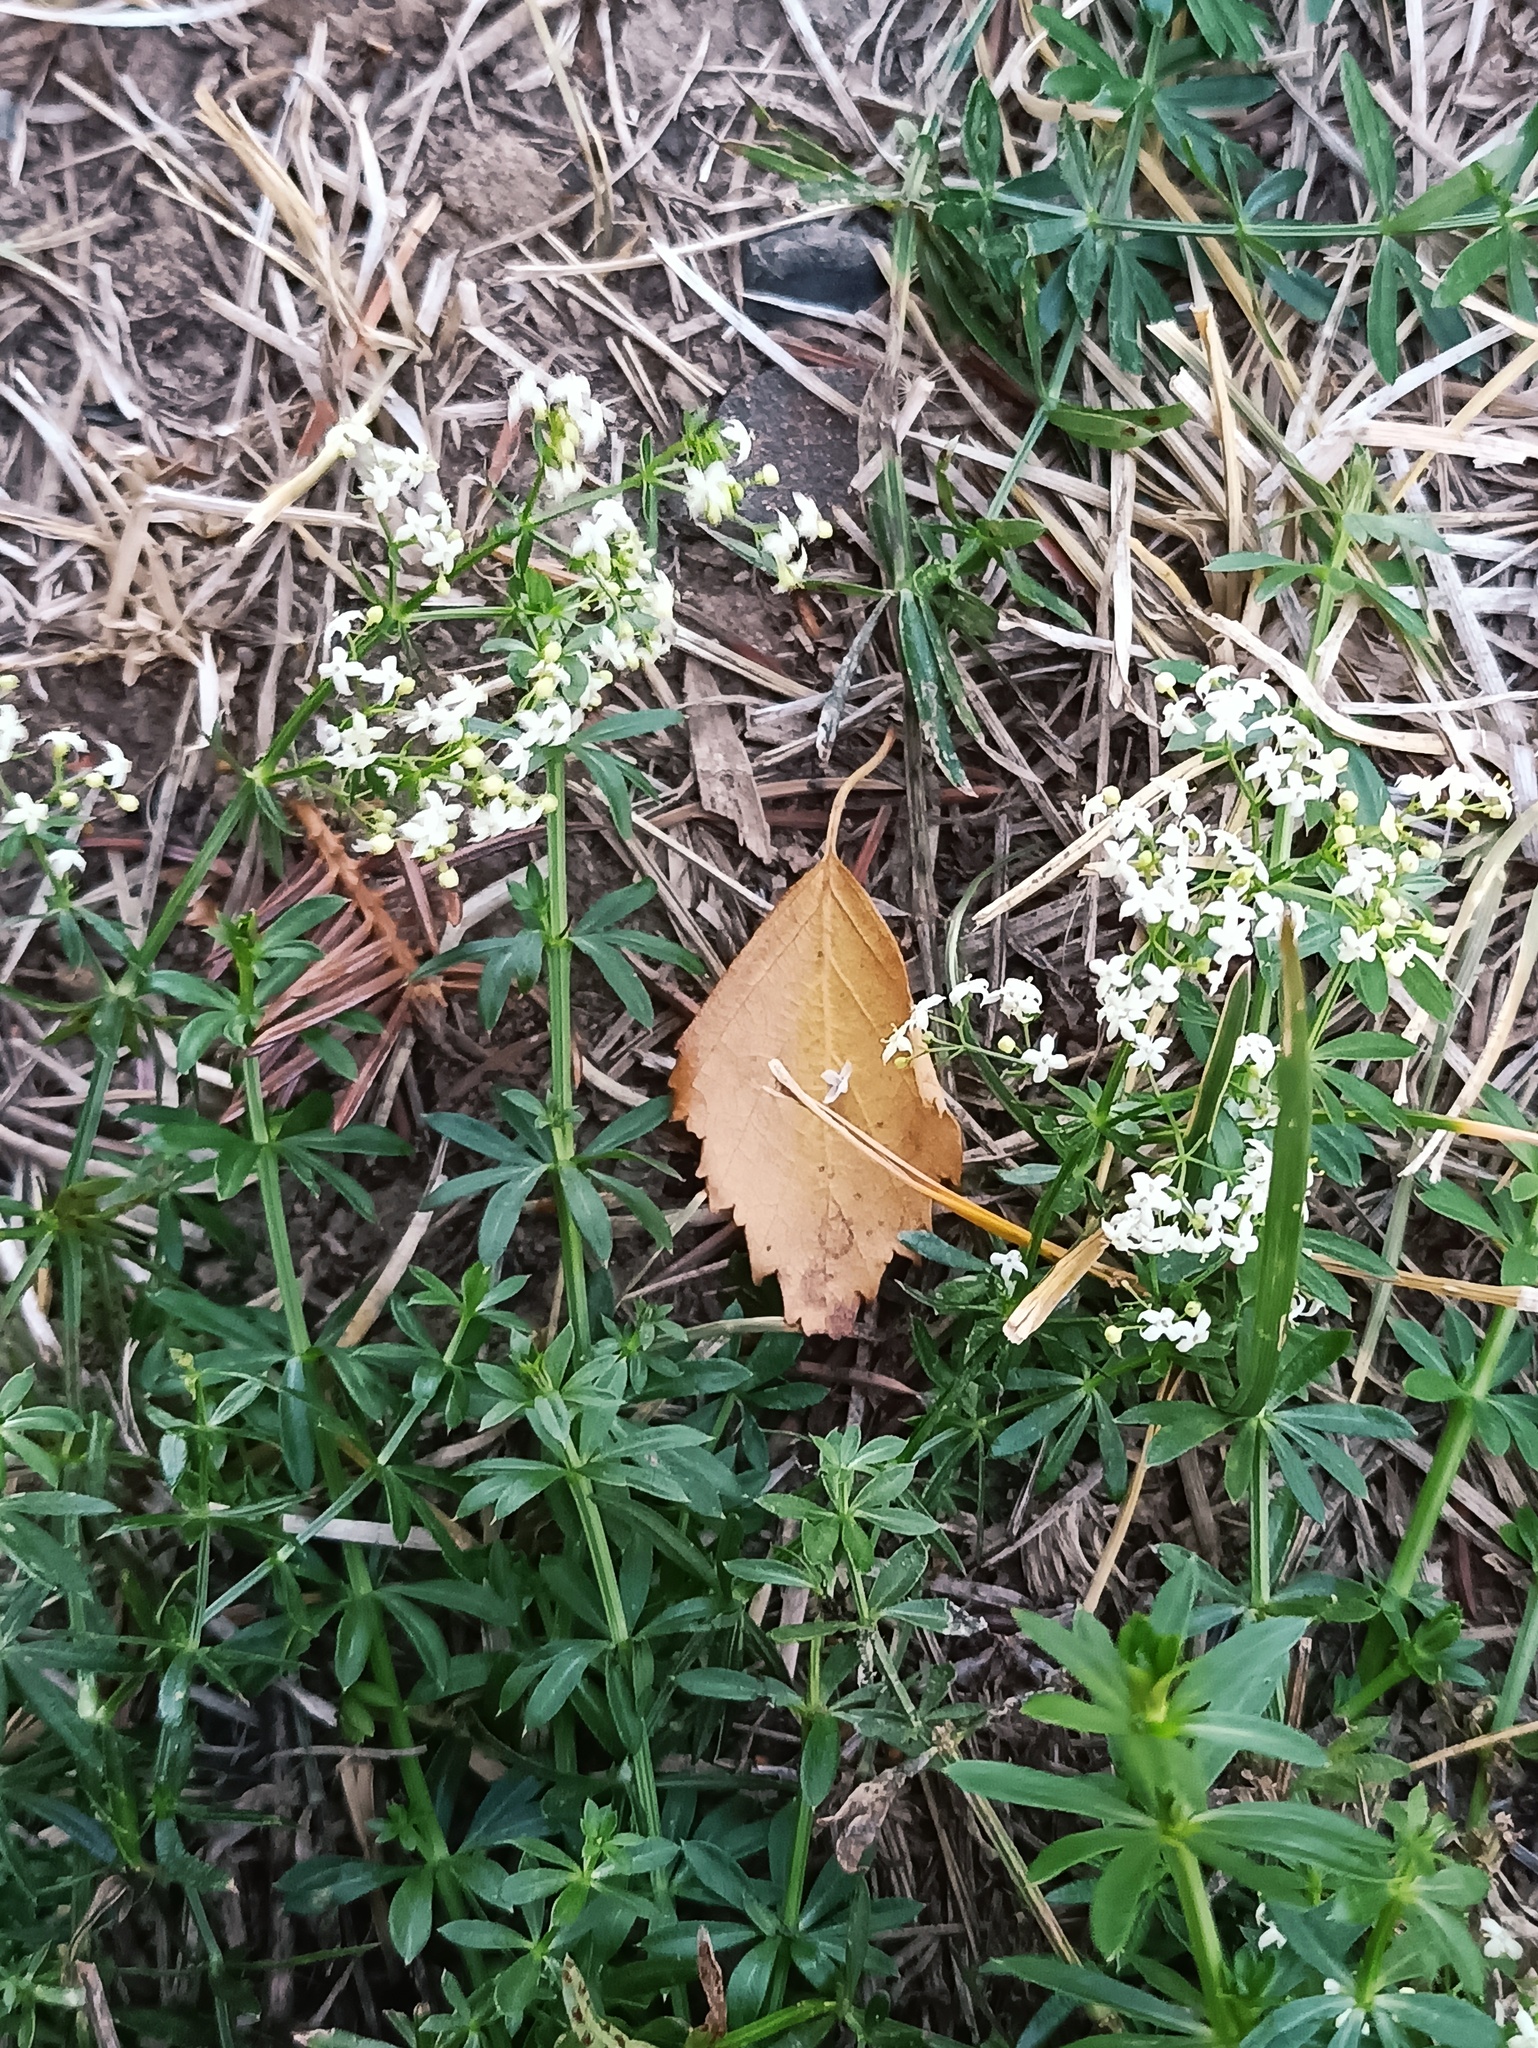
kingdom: Plantae
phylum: Tracheophyta
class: Magnoliopsida
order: Gentianales
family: Rubiaceae
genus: Galium
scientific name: Galium mollugo
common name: Hedge bedstraw
